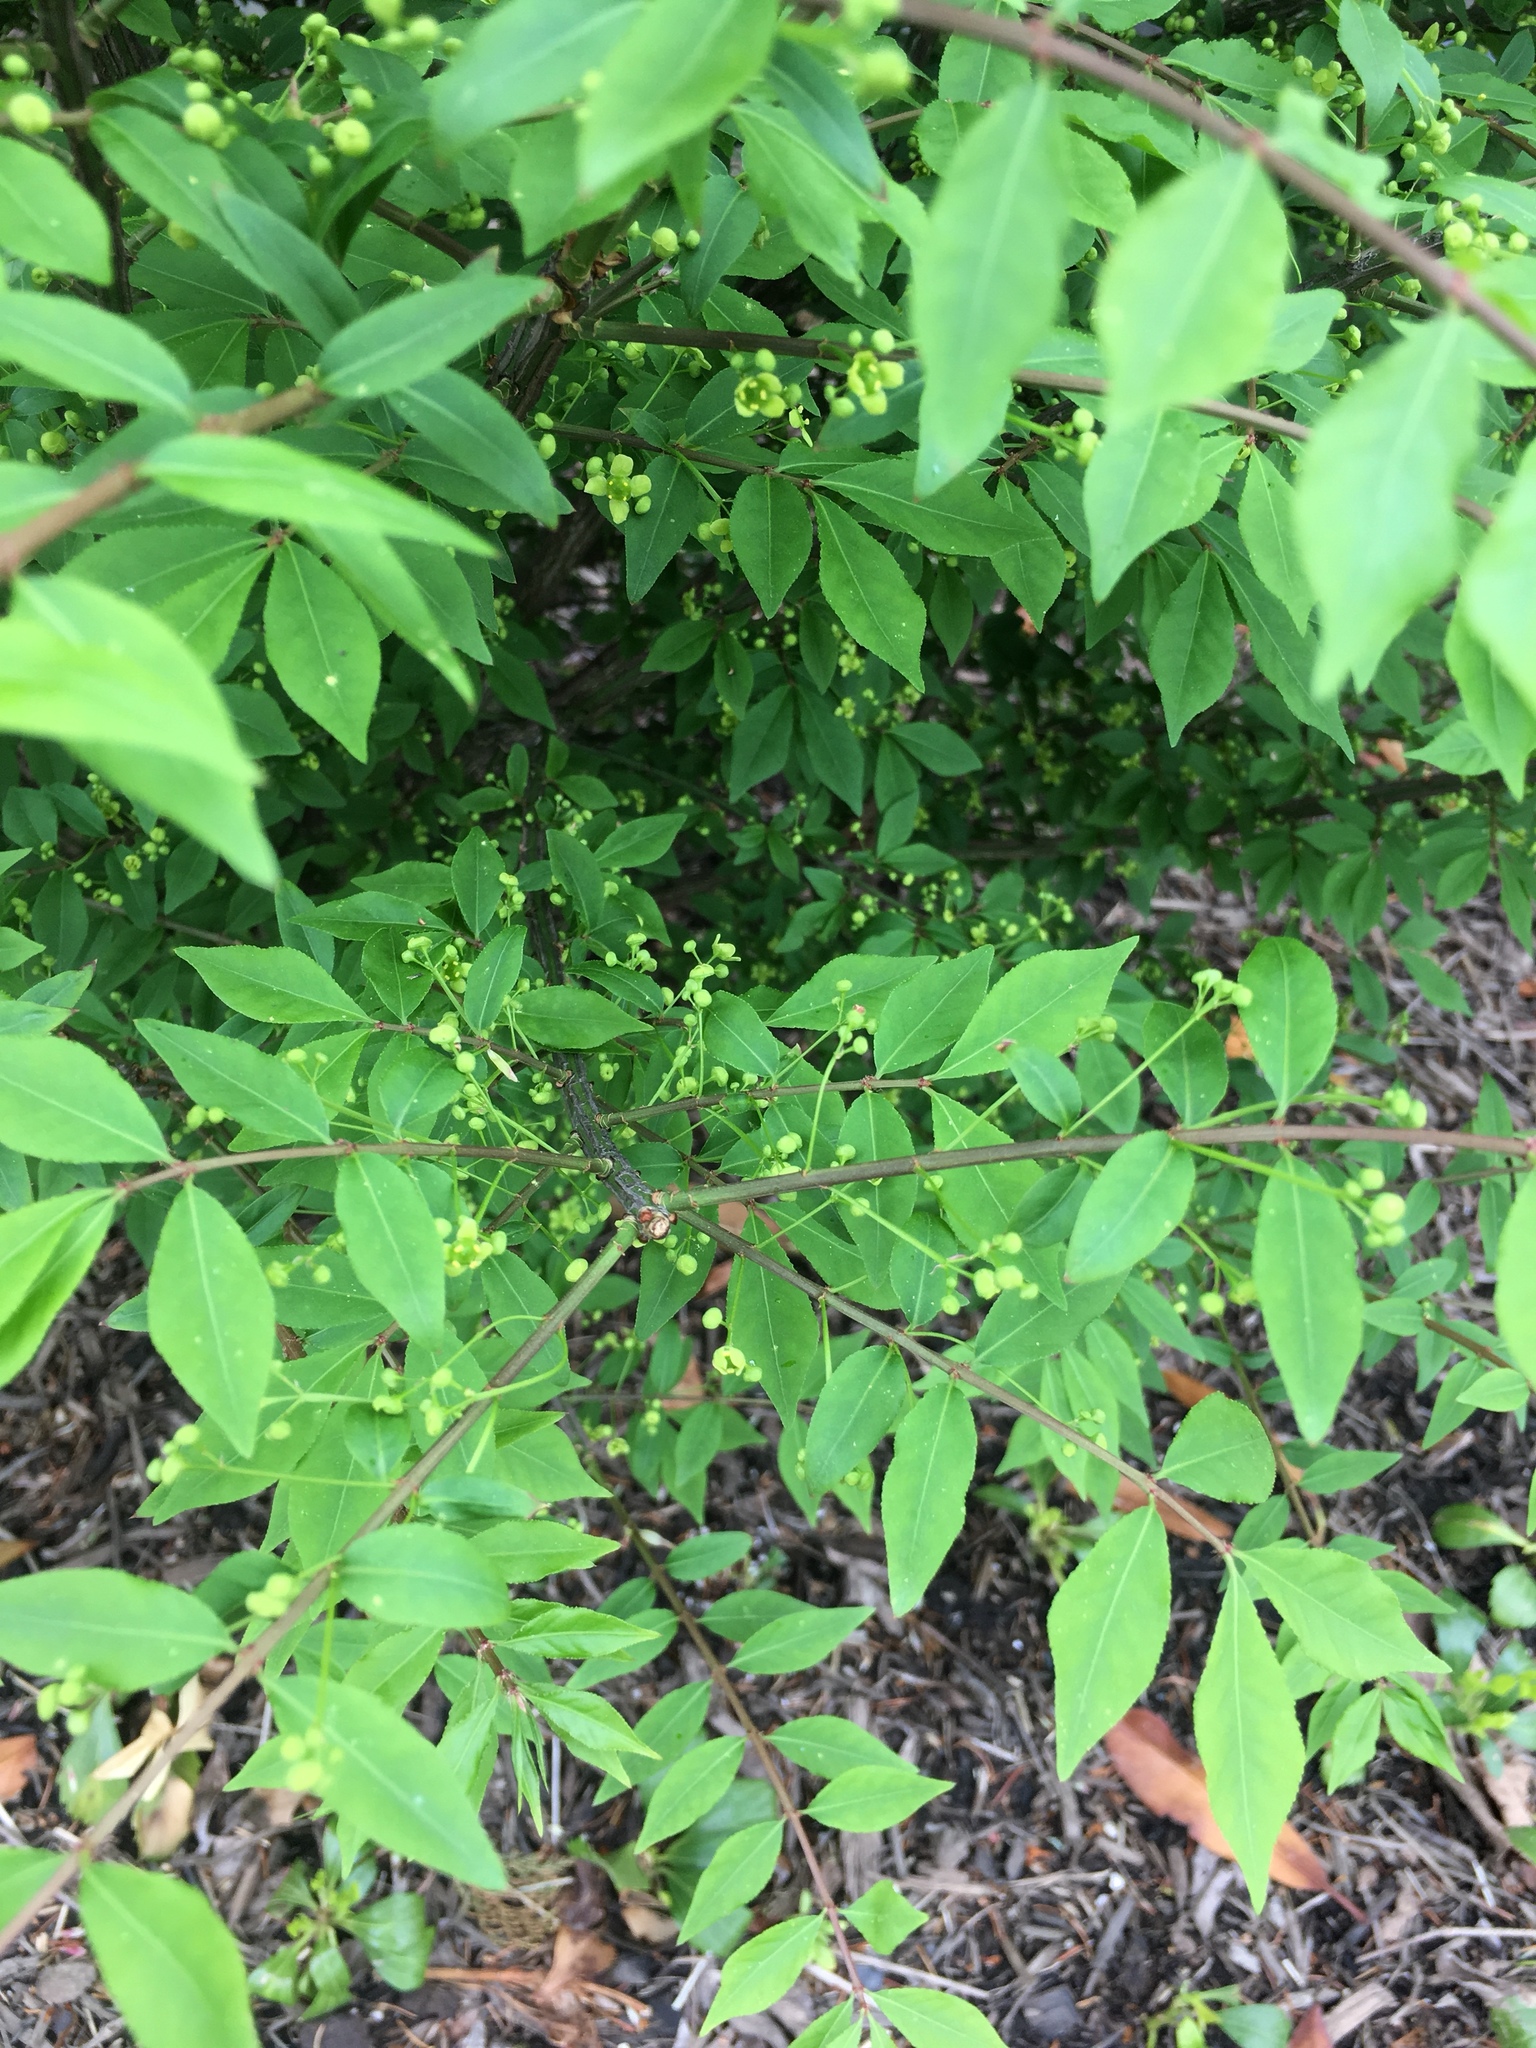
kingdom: Plantae
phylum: Tracheophyta
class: Magnoliopsida
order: Celastrales
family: Celastraceae
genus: Euonymus
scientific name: Euonymus alatus
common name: Winged euonymus
